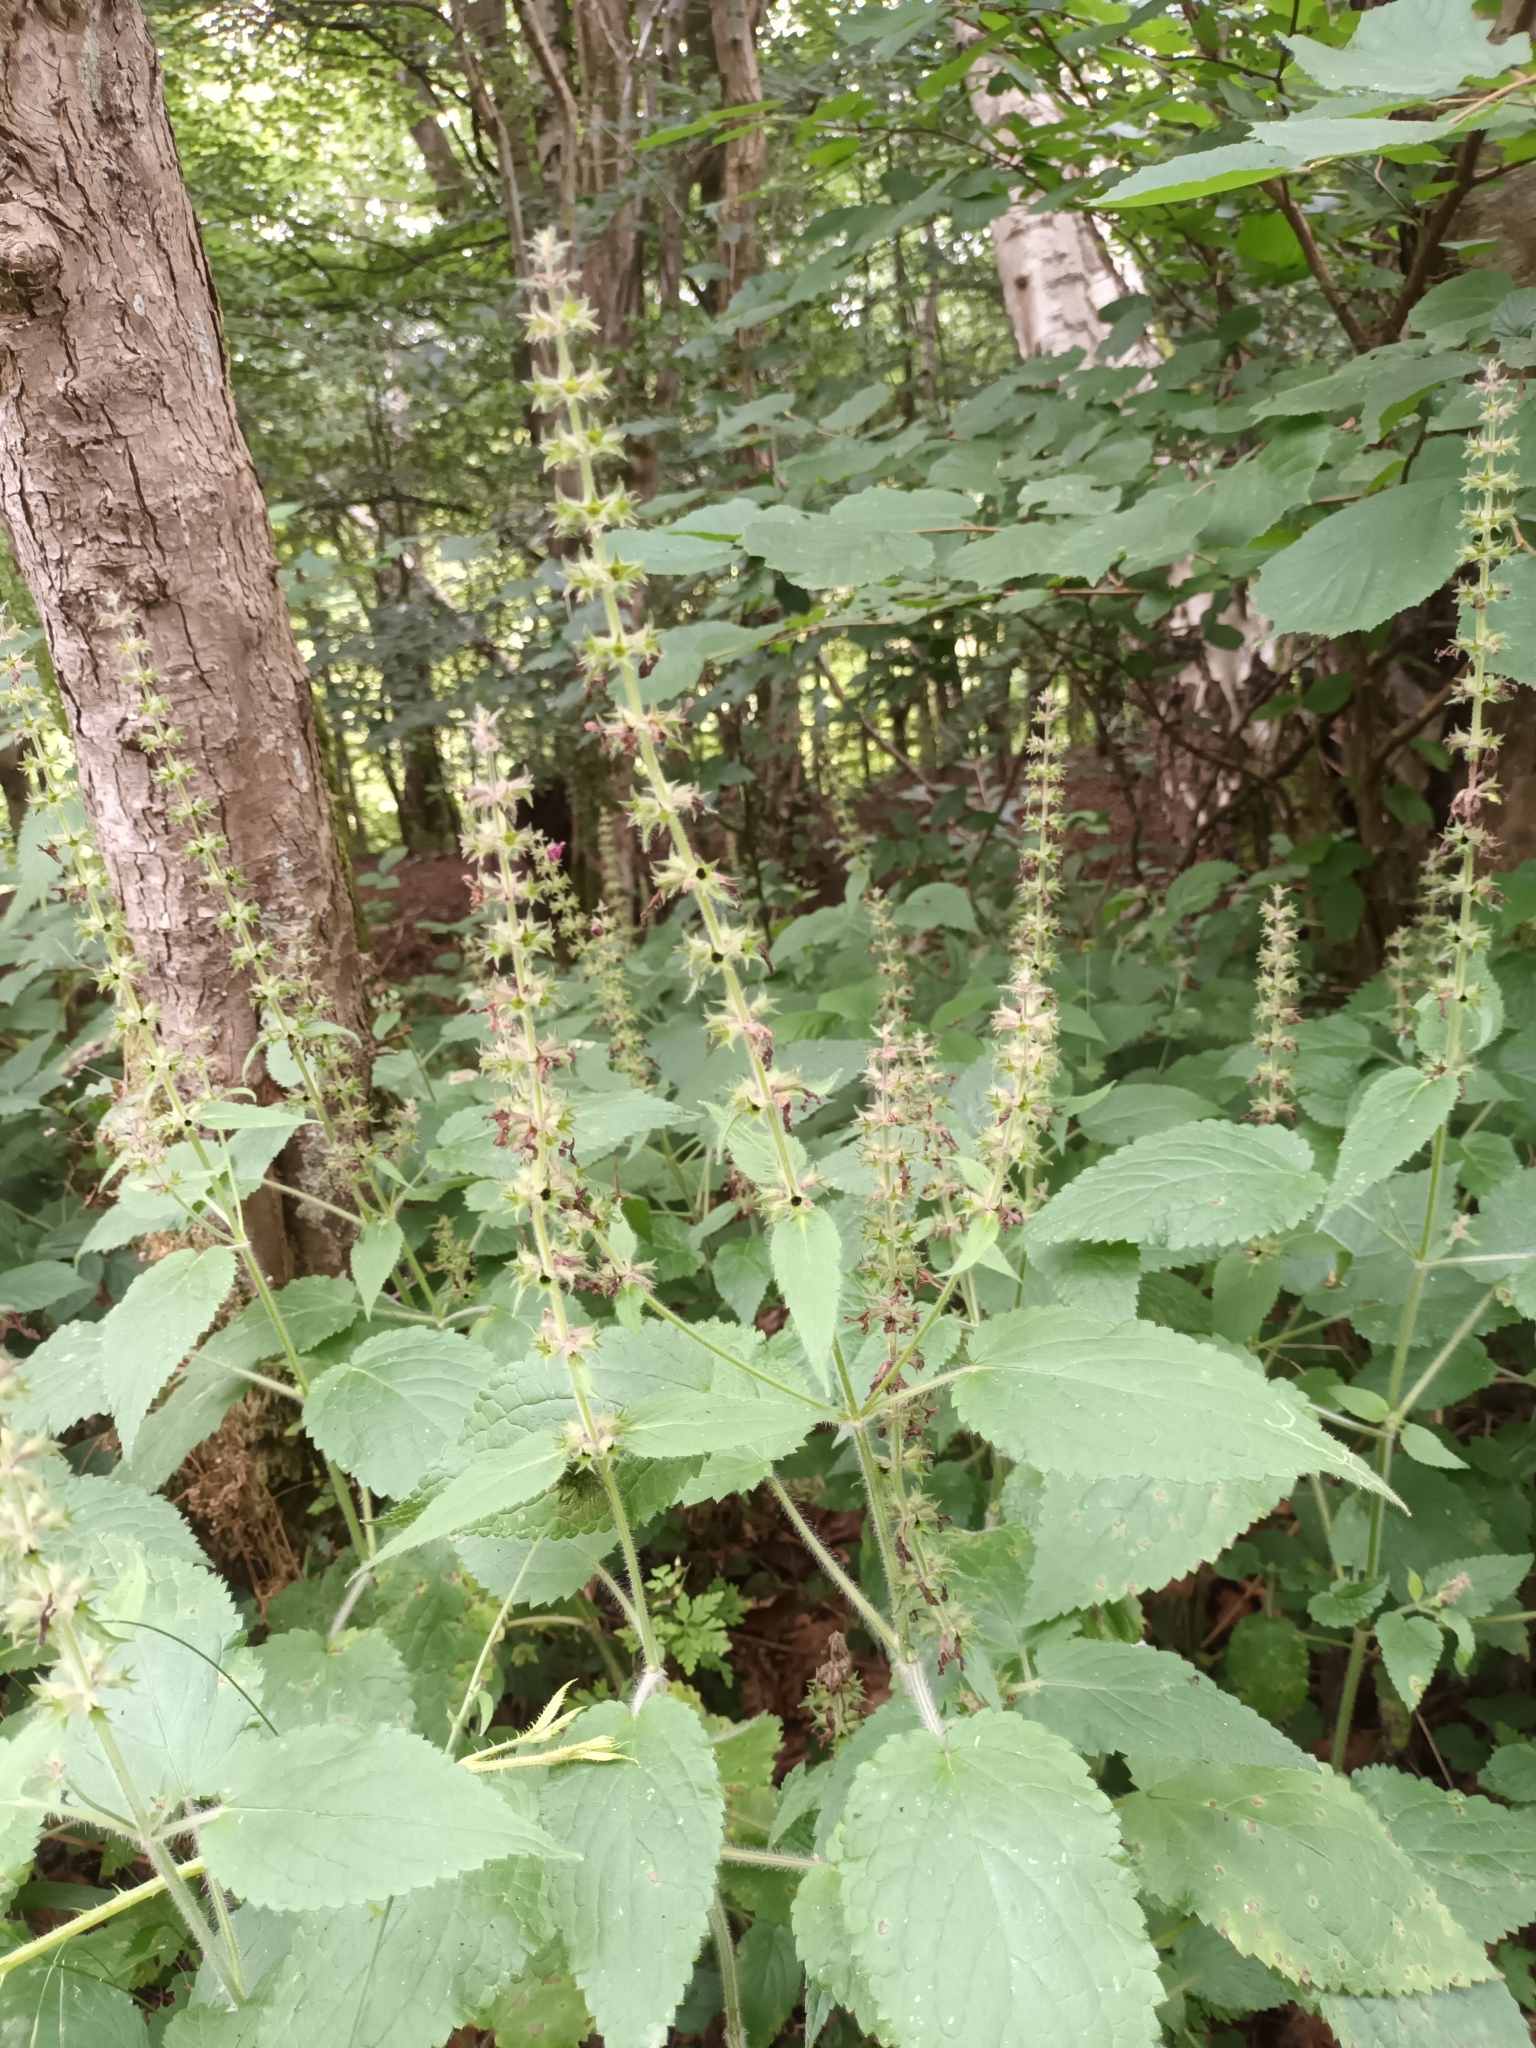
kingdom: Plantae
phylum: Tracheophyta
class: Magnoliopsida
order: Lamiales
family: Lamiaceae
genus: Stachys
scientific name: Stachys sylvatica
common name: Hedge woundwort
